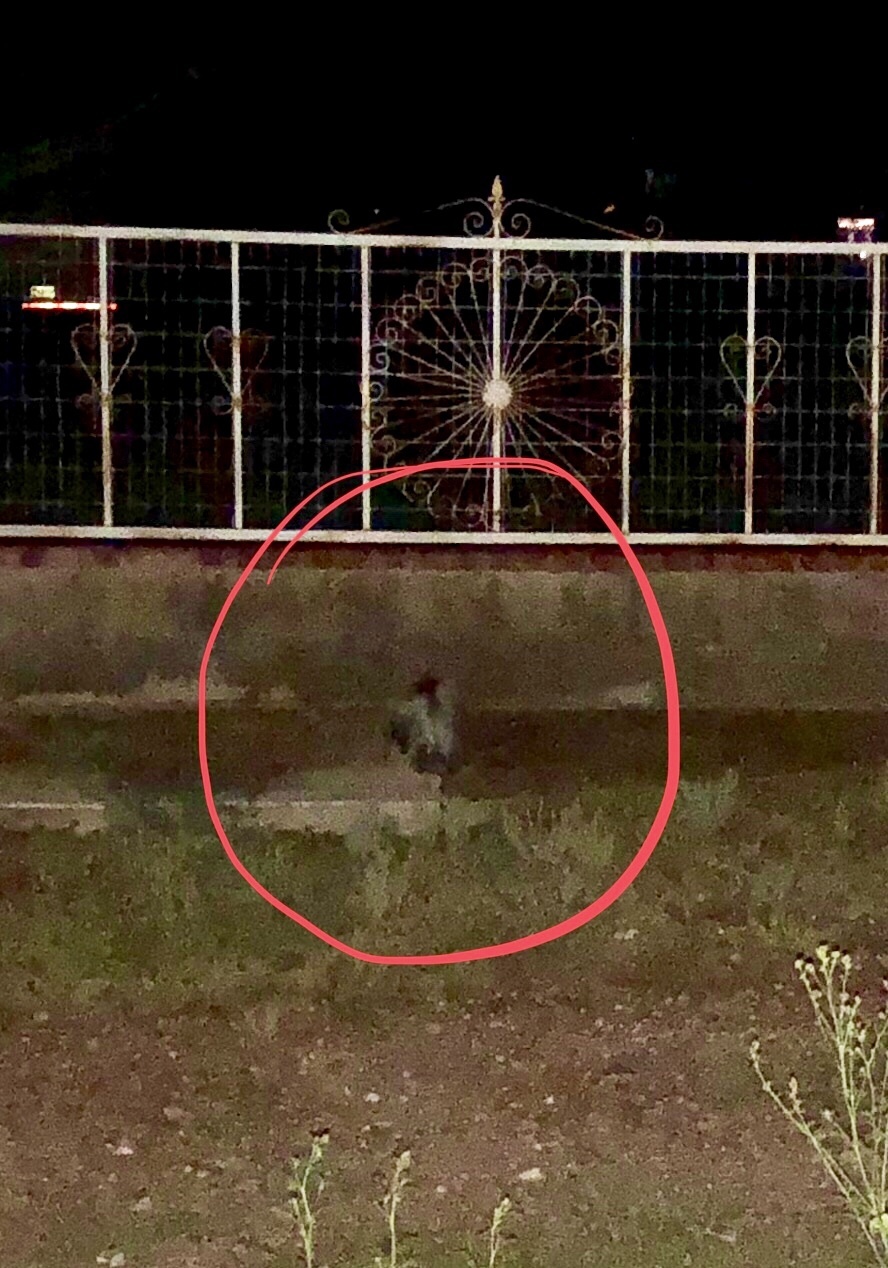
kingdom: Animalia
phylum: Chordata
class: Mammalia
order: Carnivora
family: Mephitidae
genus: Mephitis
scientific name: Mephitis mephitis
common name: Striped skunk
